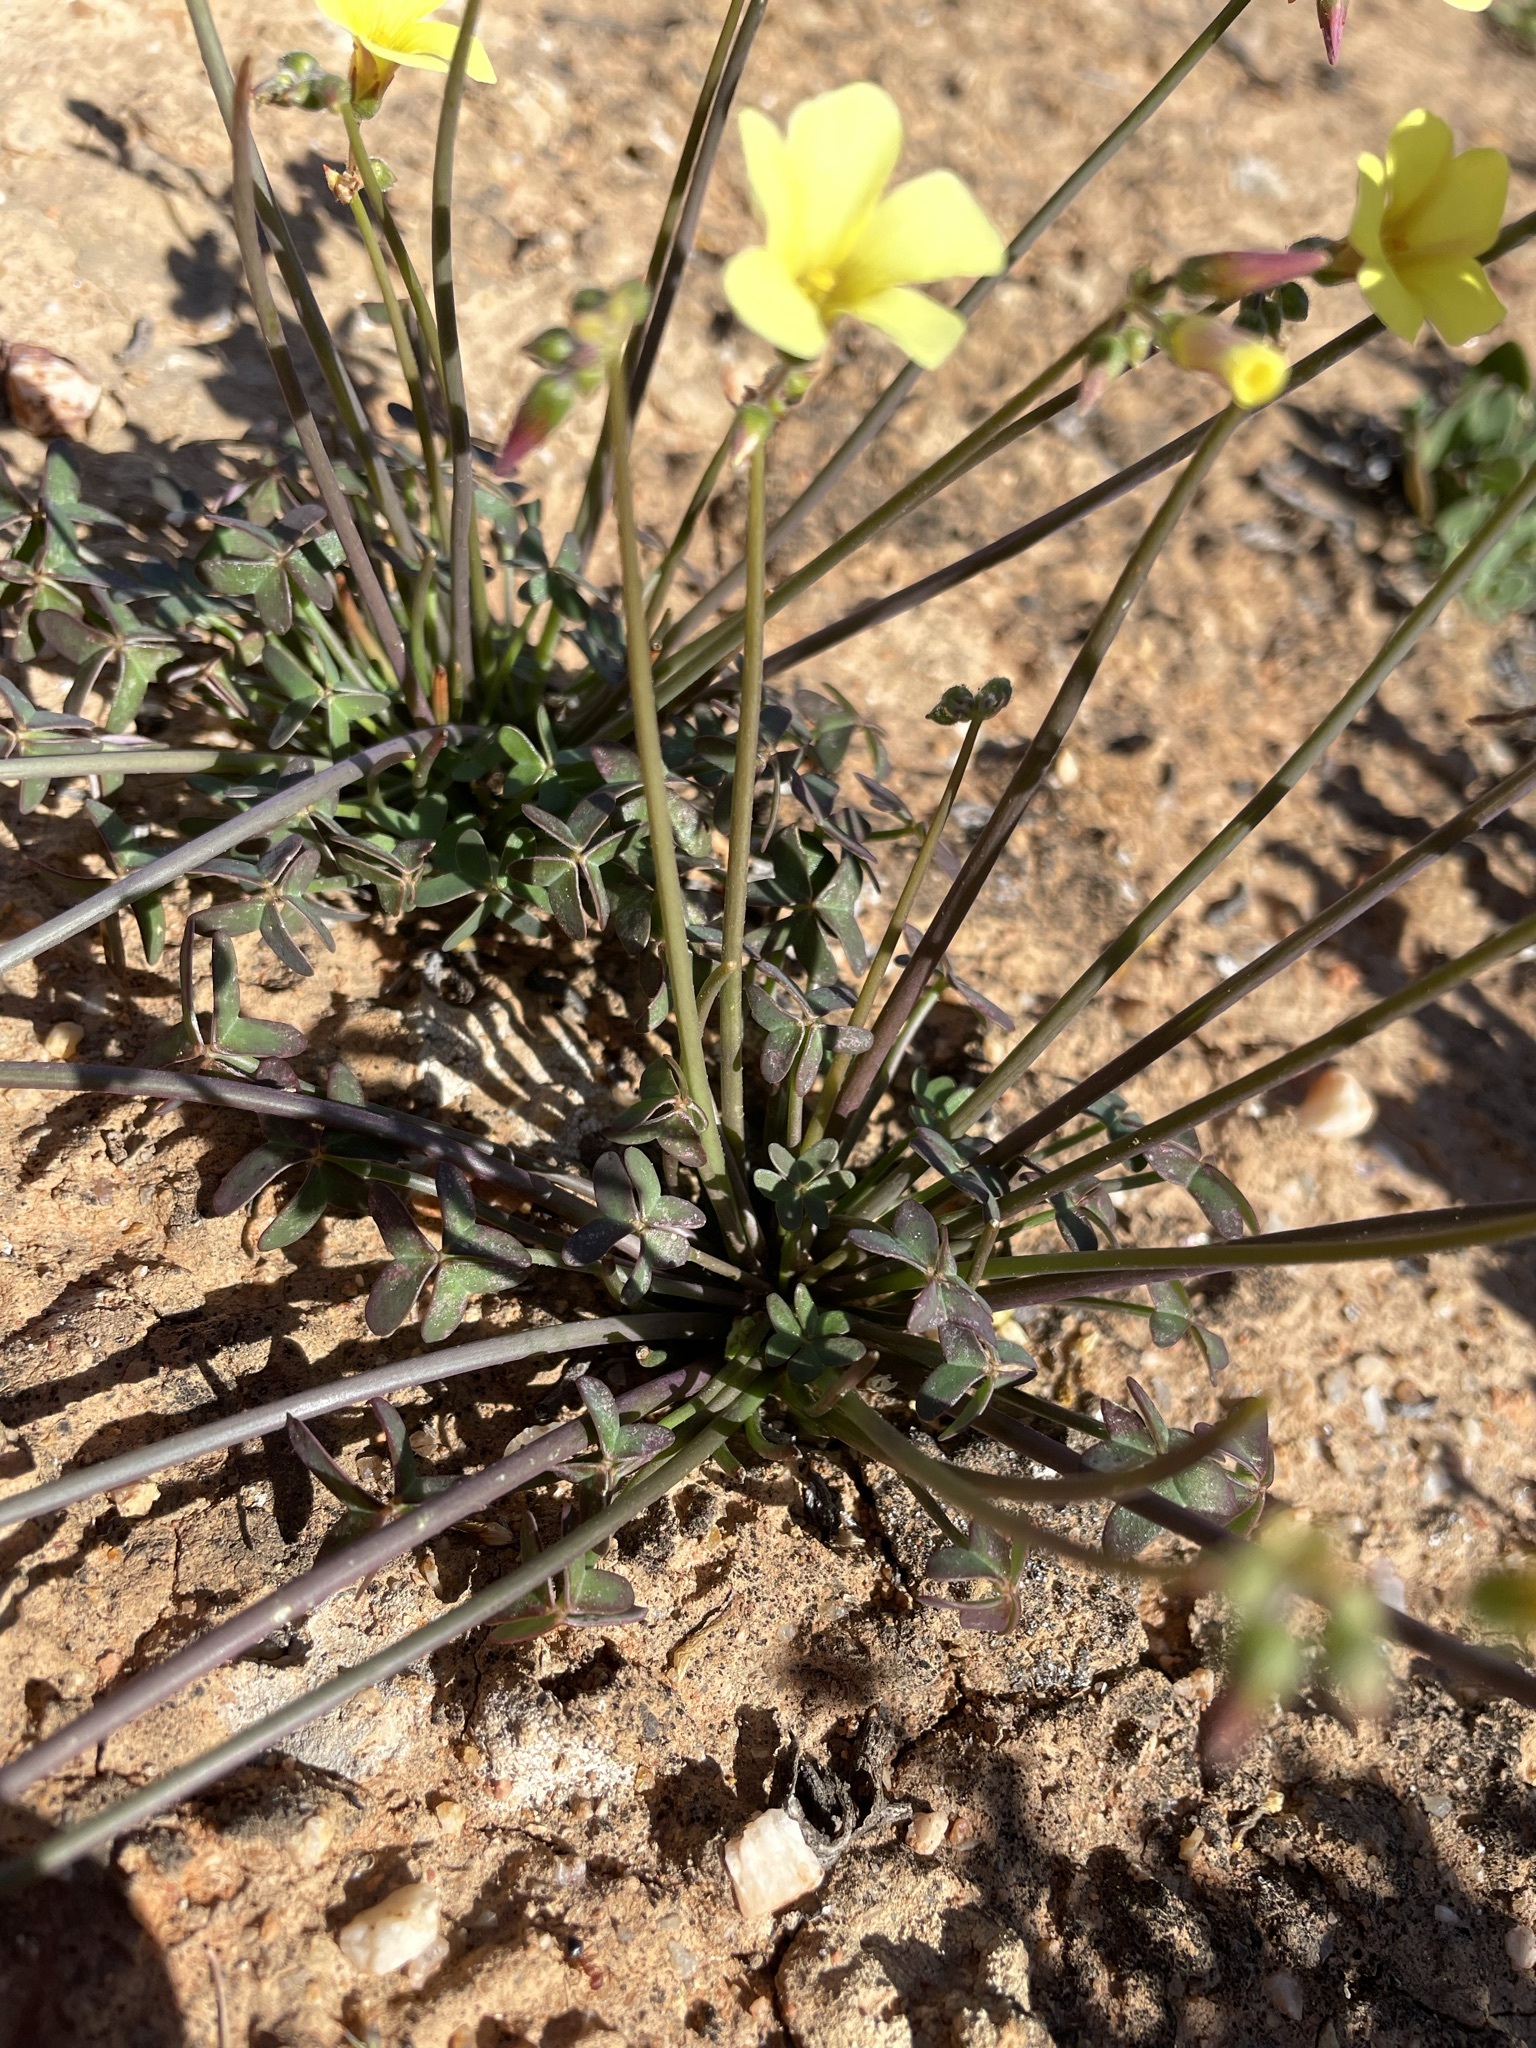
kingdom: Plantae
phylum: Tracheophyta
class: Magnoliopsida
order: Oxalidales
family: Oxalidaceae
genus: Oxalis
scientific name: Oxalis pes-caprae
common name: Bermuda-buttercup
